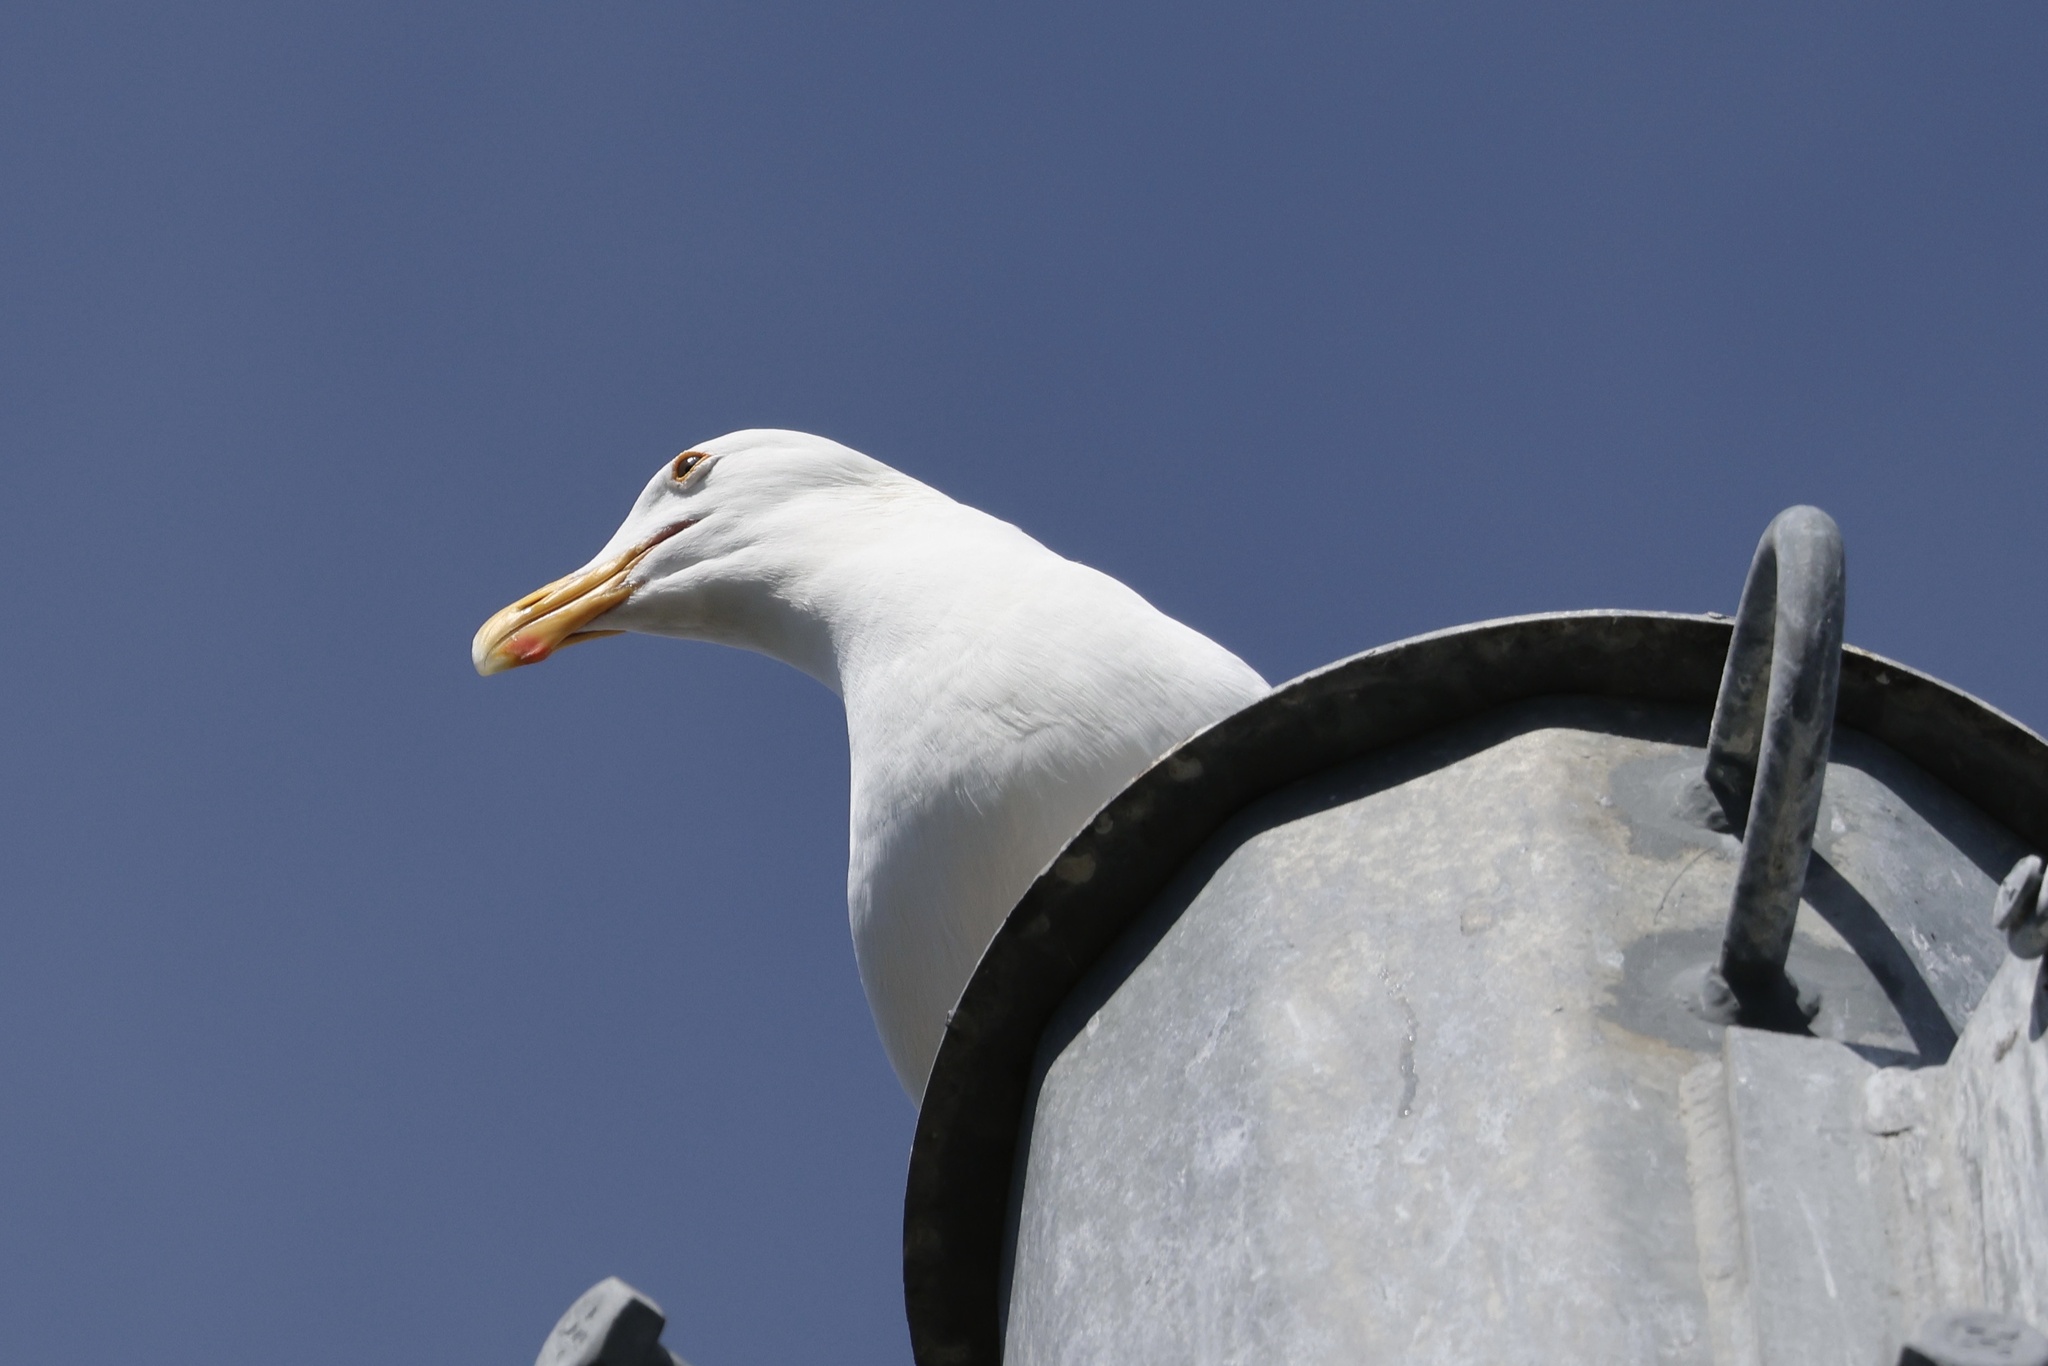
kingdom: Animalia
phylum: Chordata
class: Aves
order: Charadriiformes
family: Laridae
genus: Larus
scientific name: Larus occidentalis
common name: Western gull
